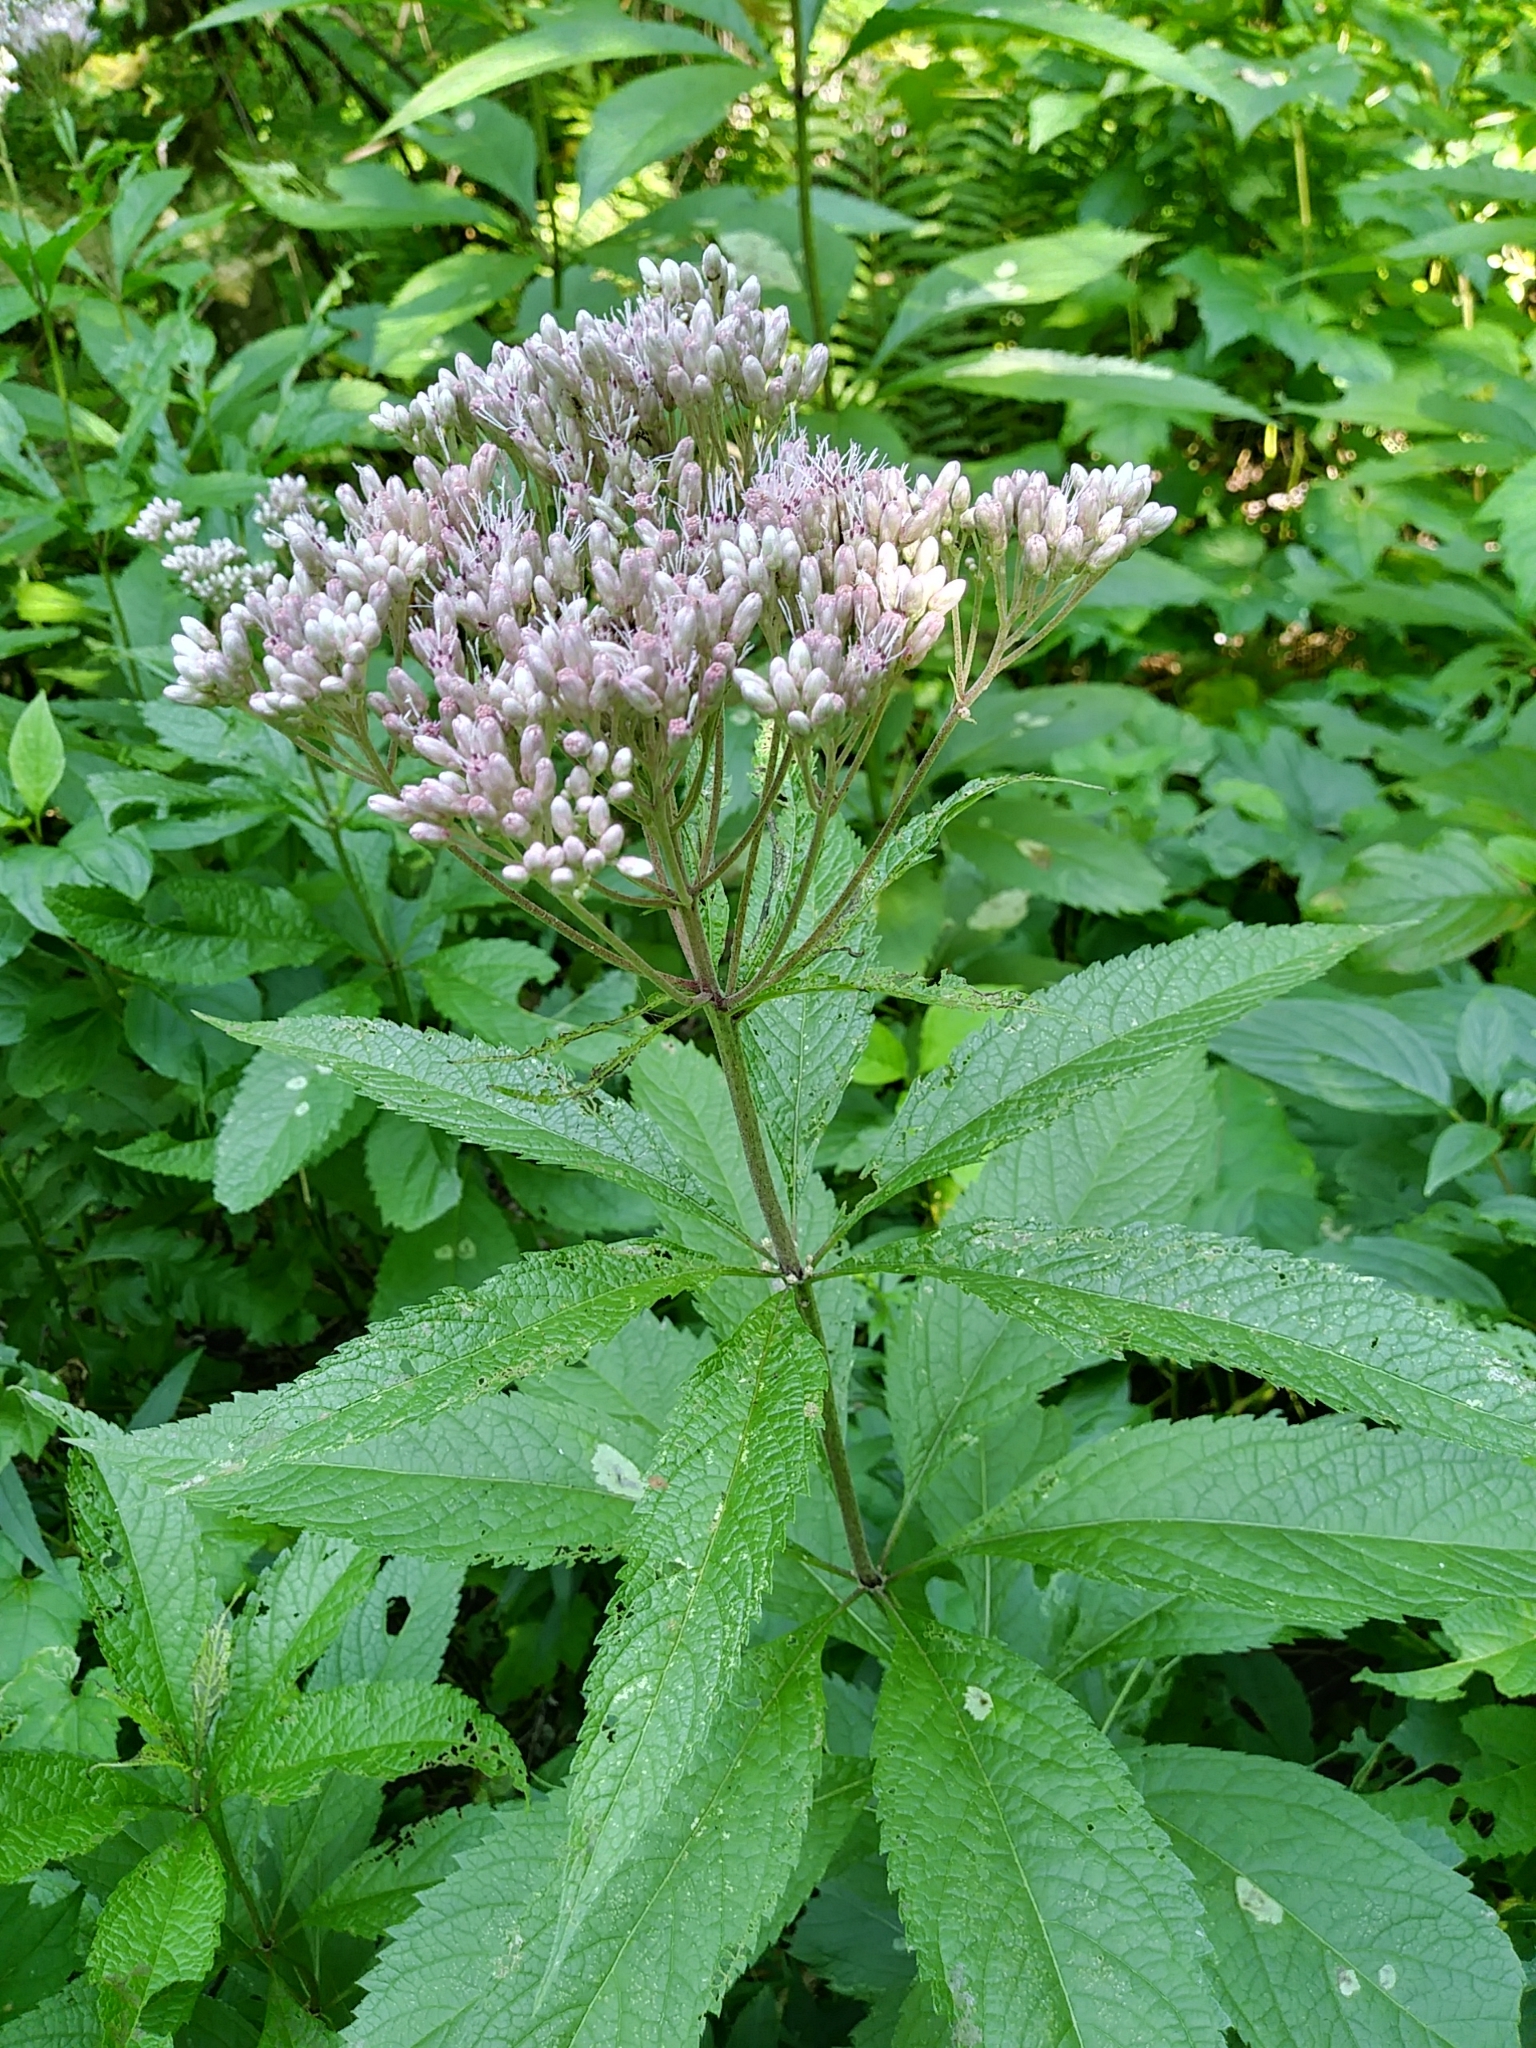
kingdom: Plantae
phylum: Tracheophyta
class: Magnoliopsida
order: Asterales
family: Asteraceae
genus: Eutrochium
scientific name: Eutrochium maculatum
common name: Spotted joe pye weed
